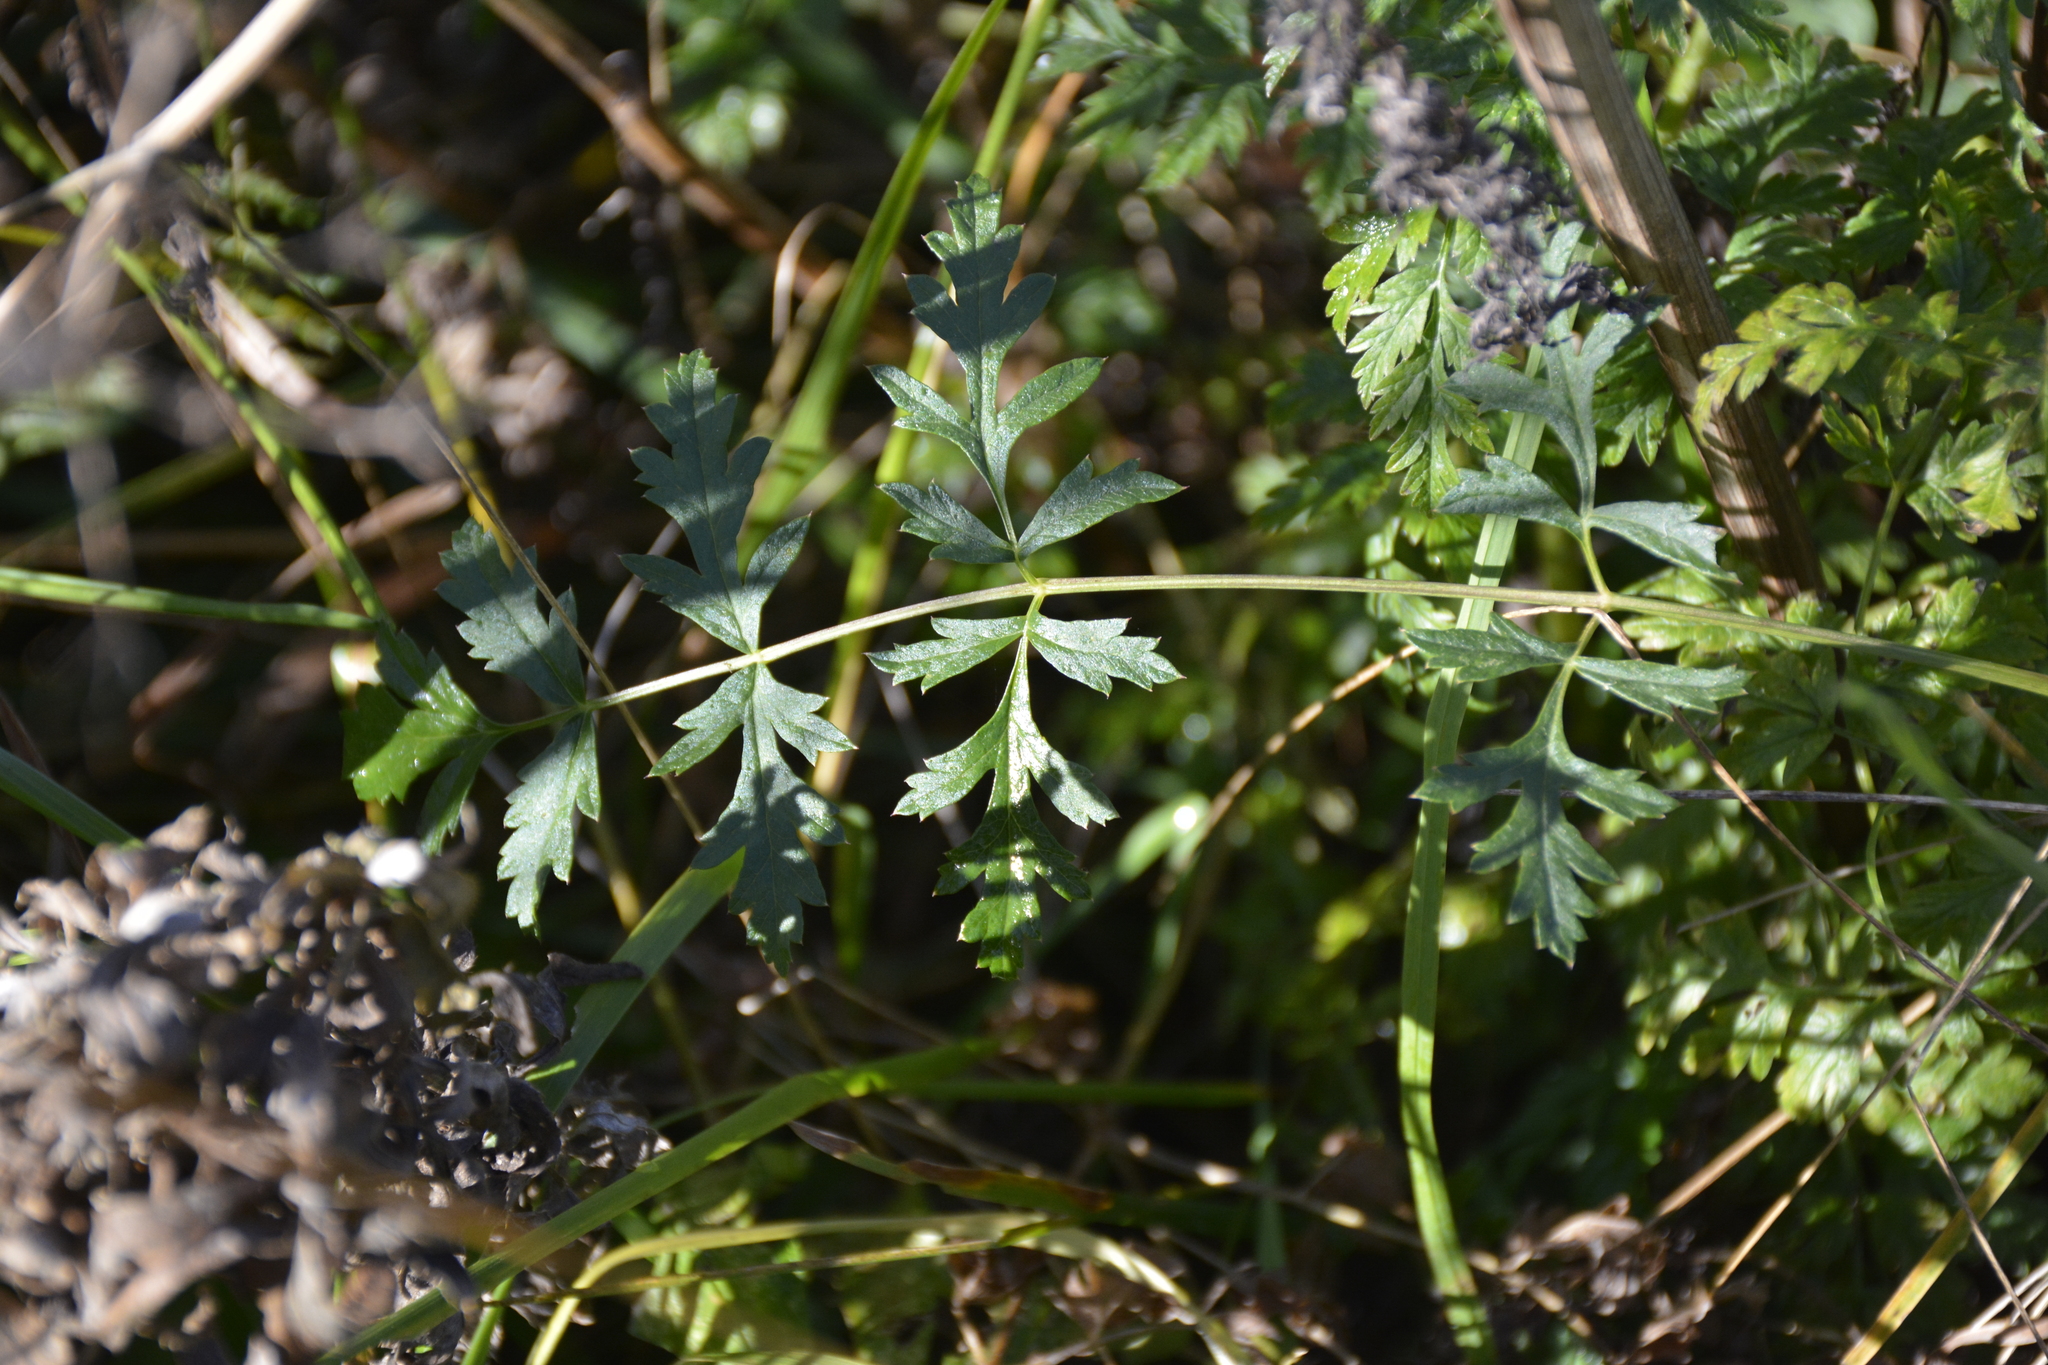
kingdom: Plantae
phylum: Tracheophyta
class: Magnoliopsida
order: Apiales
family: Apiaceae
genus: Pimpinella
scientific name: Pimpinella saxifraga
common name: Burnet-saxifrage
